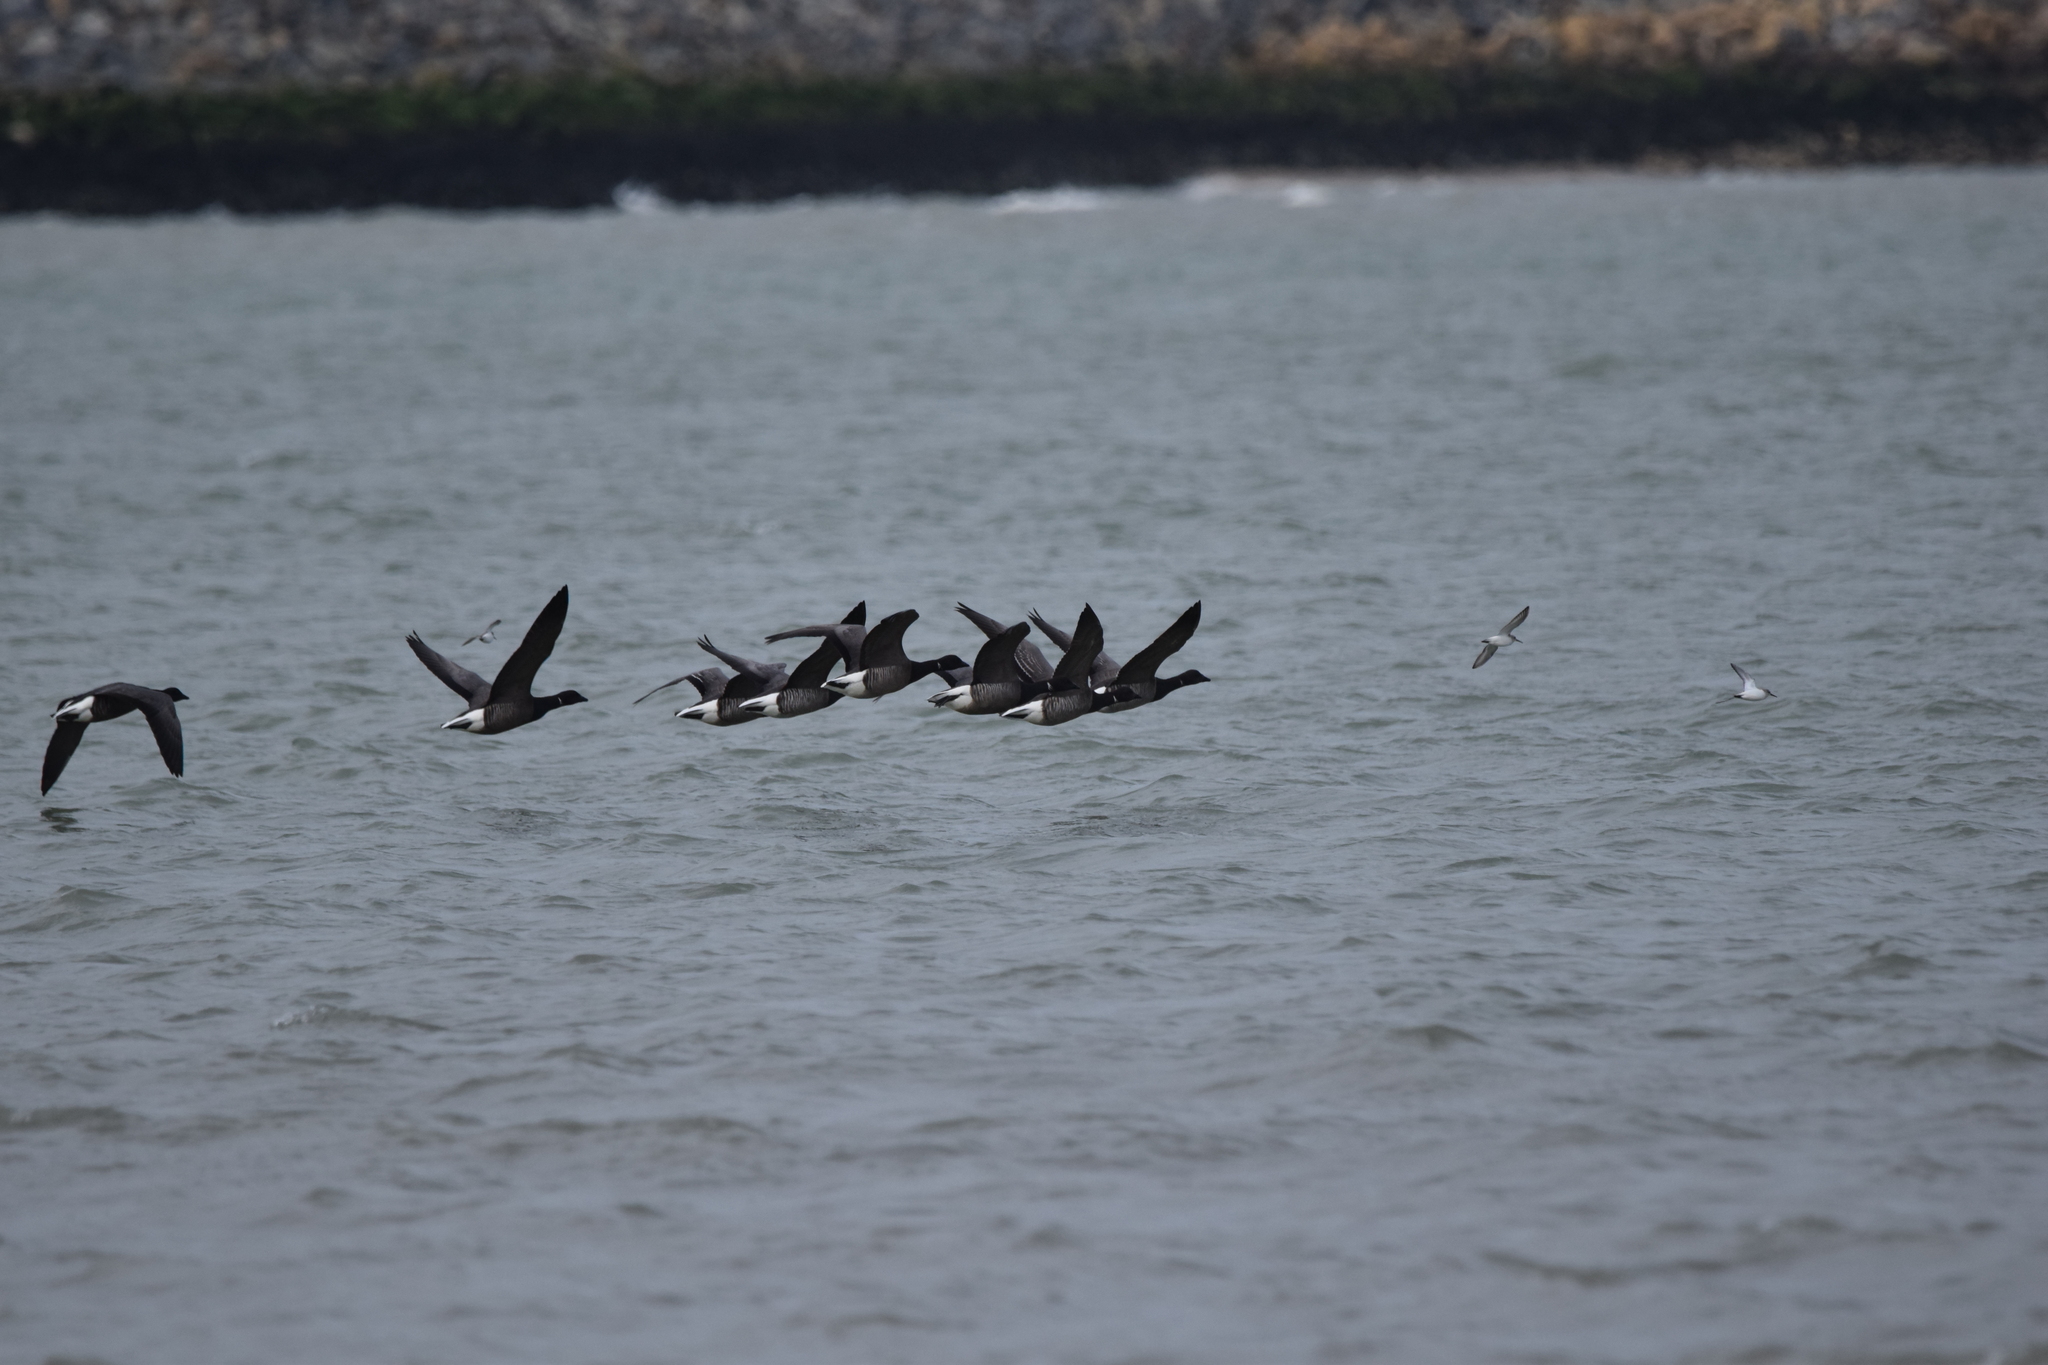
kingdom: Animalia
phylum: Chordata
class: Aves
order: Anseriformes
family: Anatidae
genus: Branta
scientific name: Branta bernicla
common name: Brant goose
